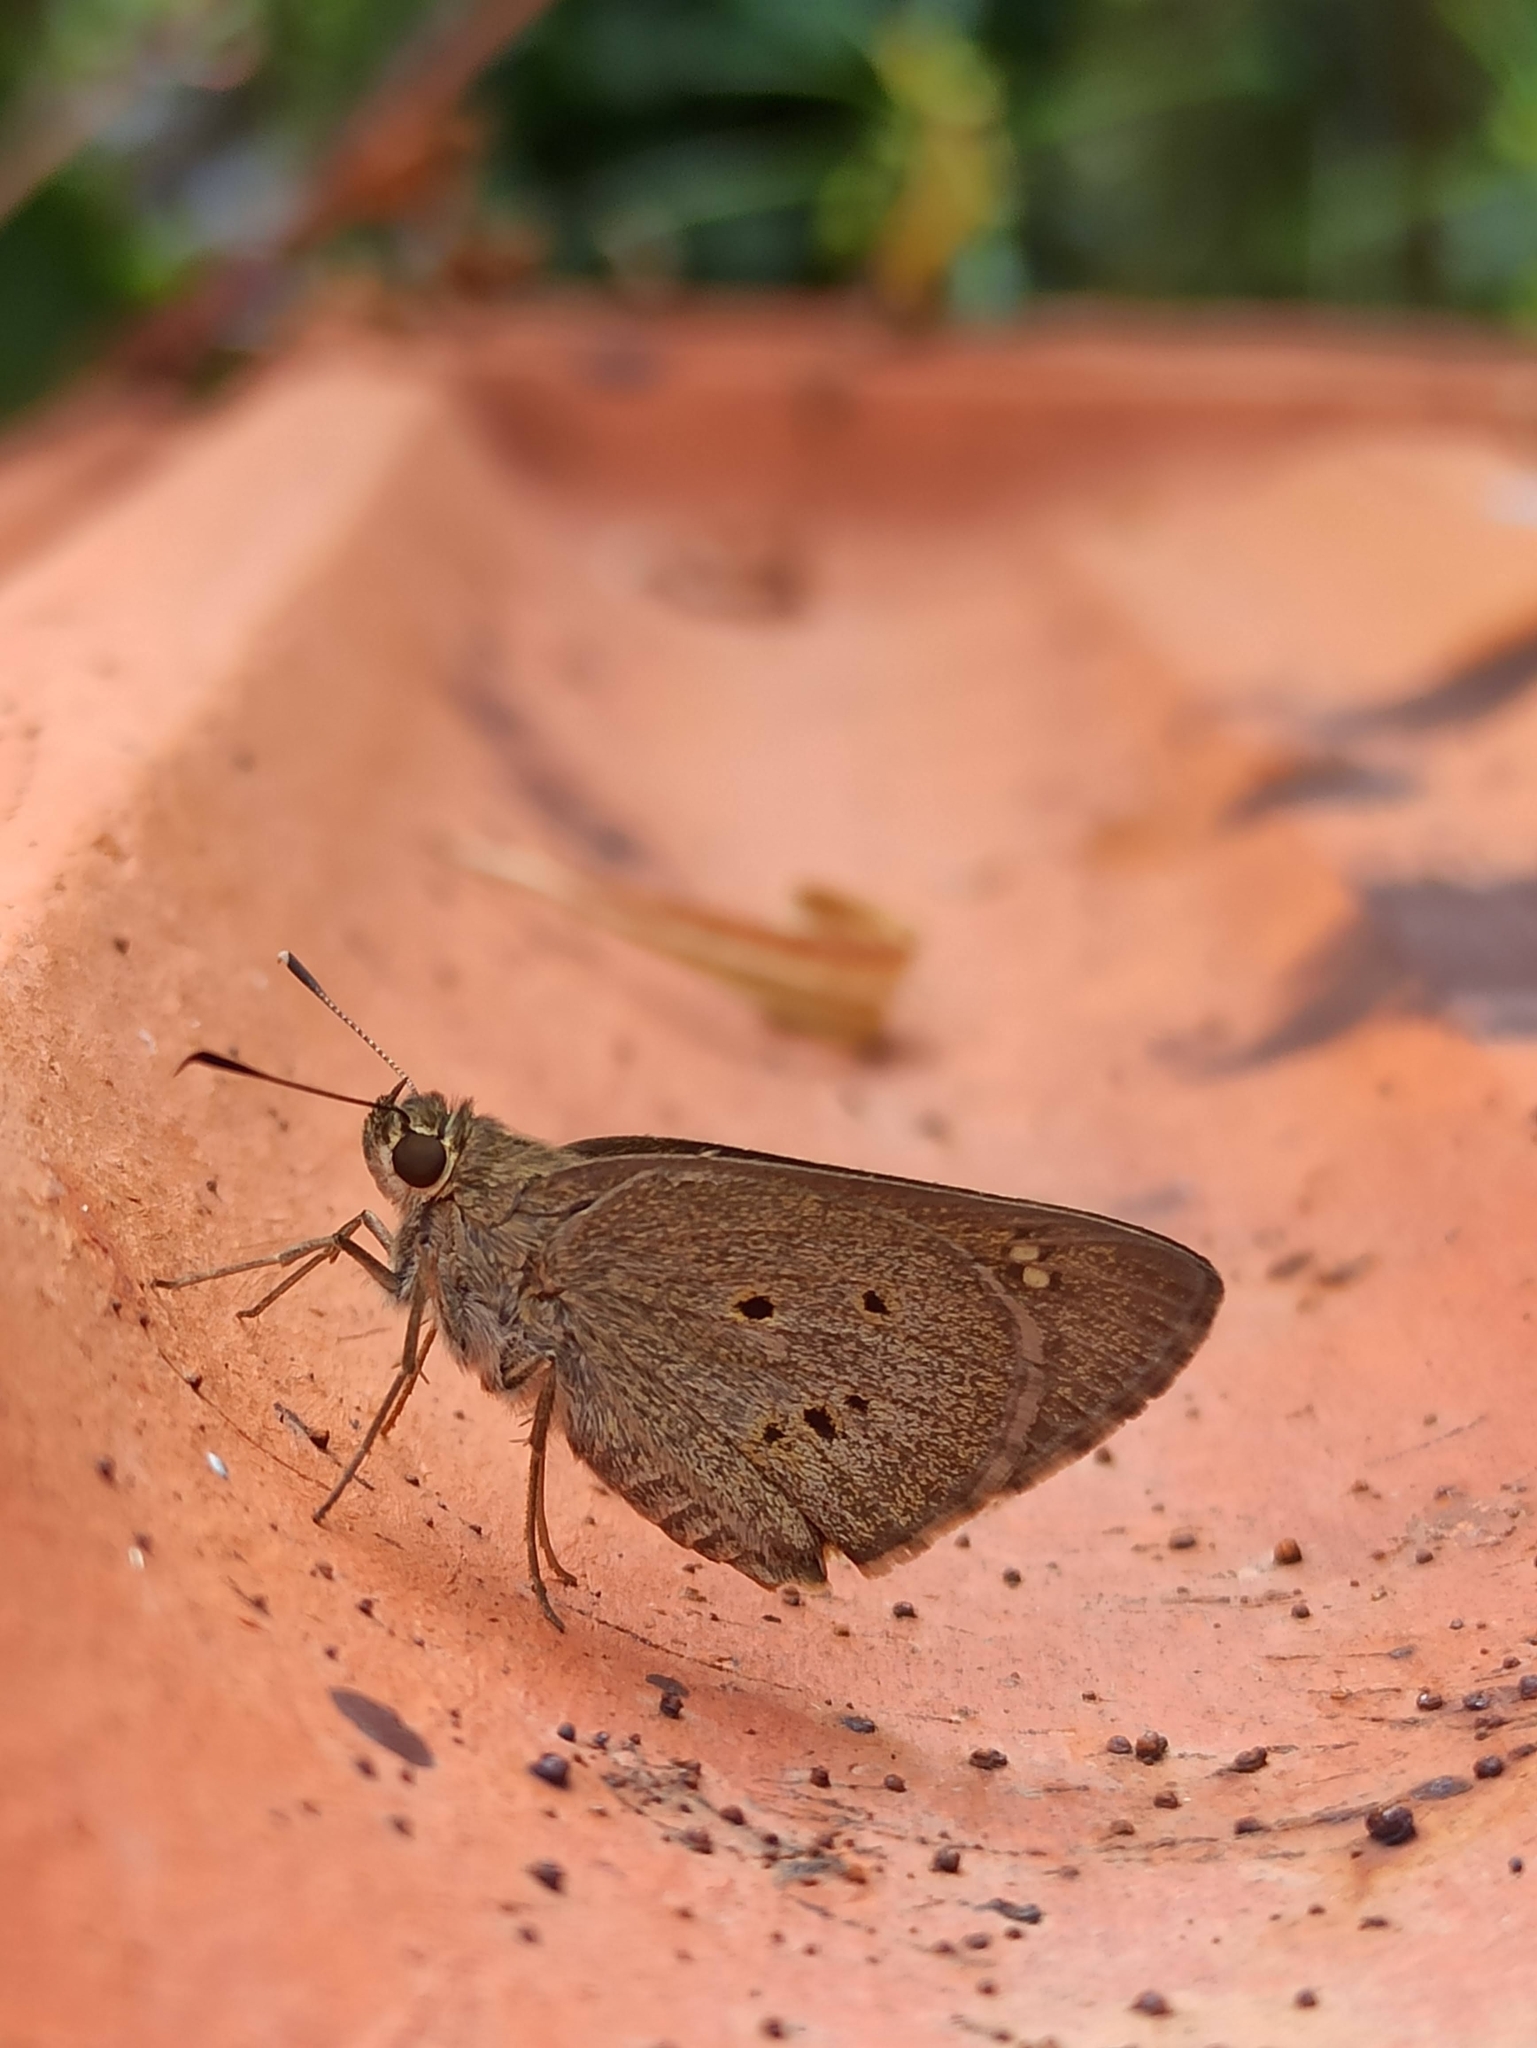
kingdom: Animalia
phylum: Arthropoda
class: Insecta
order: Lepidoptera
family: Hesperiidae
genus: Suastus
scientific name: Suastus gremius
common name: Indian palm bob
